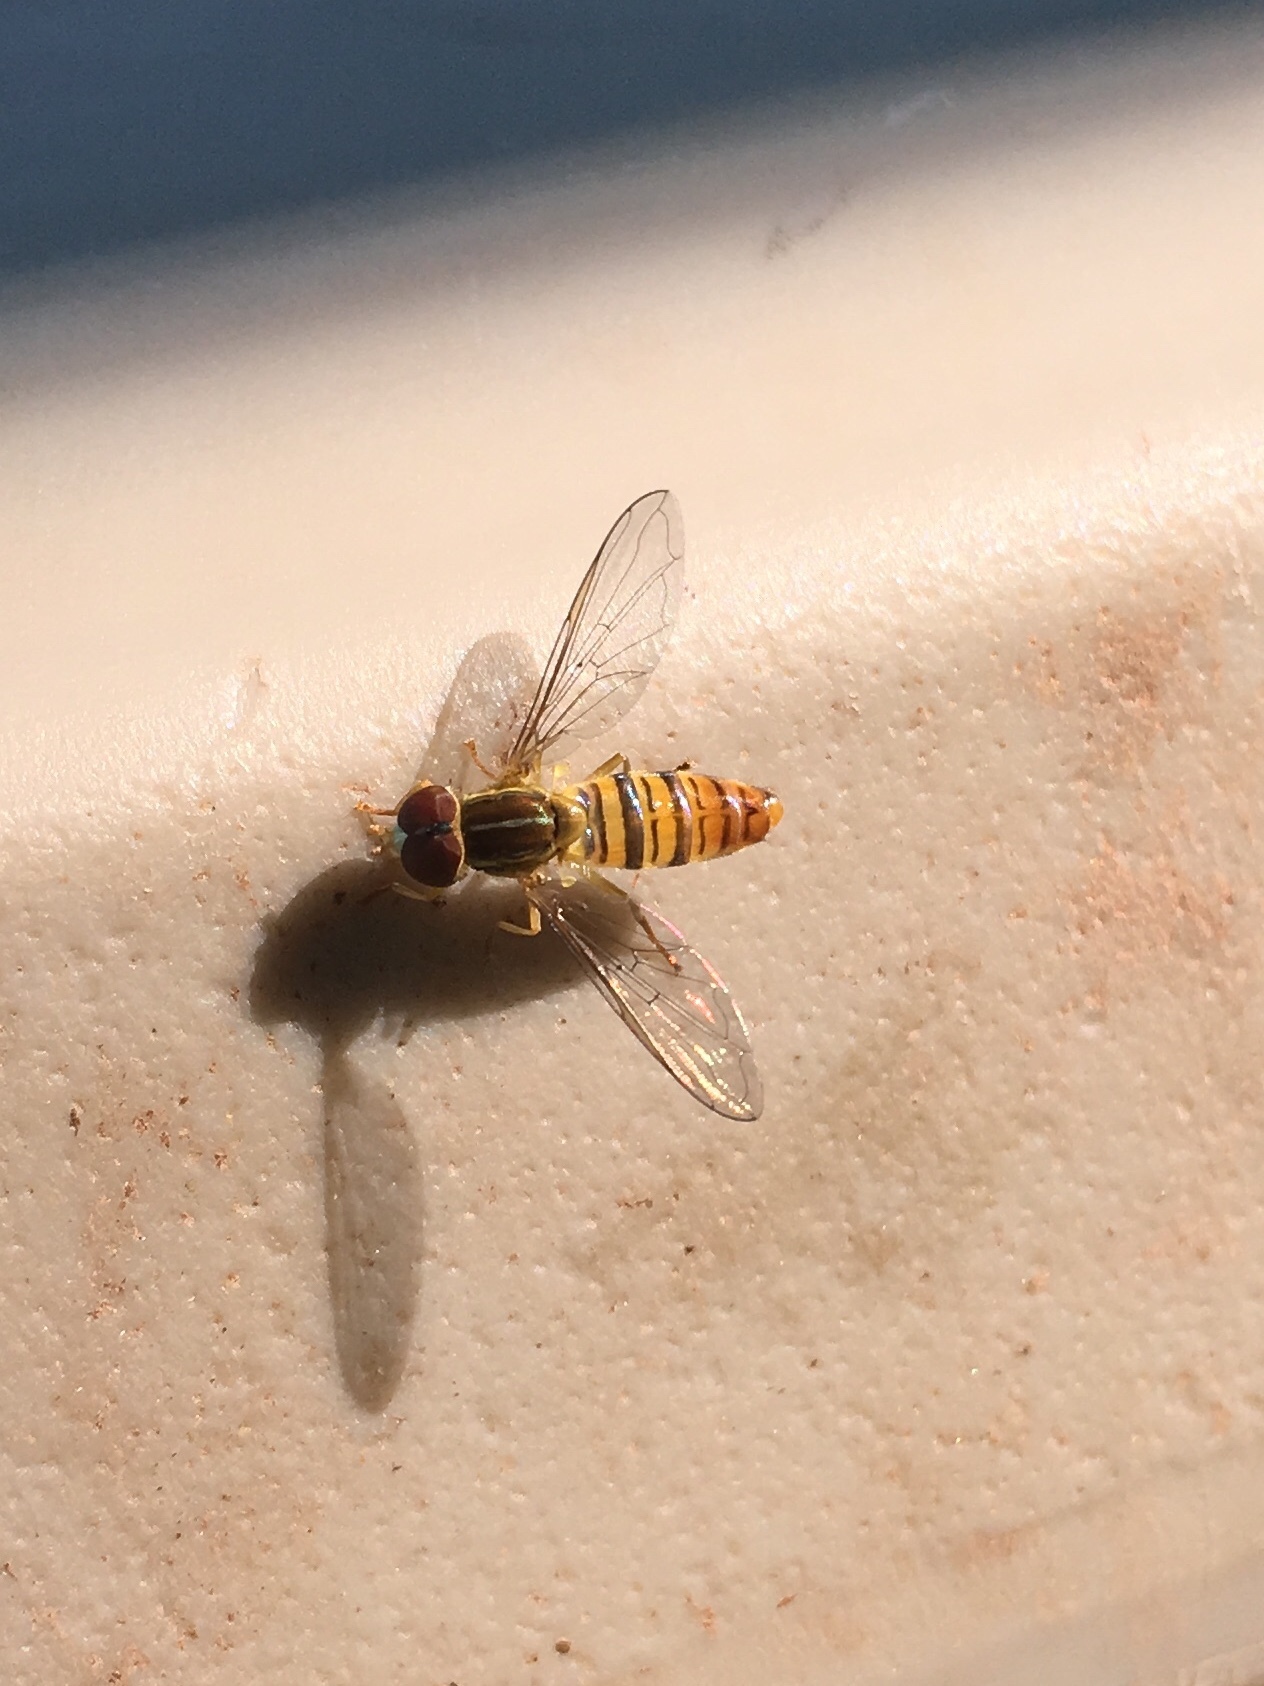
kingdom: Animalia
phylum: Arthropoda
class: Insecta
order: Diptera
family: Syrphidae
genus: Toxomerus
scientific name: Toxomerus politus
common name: Maize calligrapher
